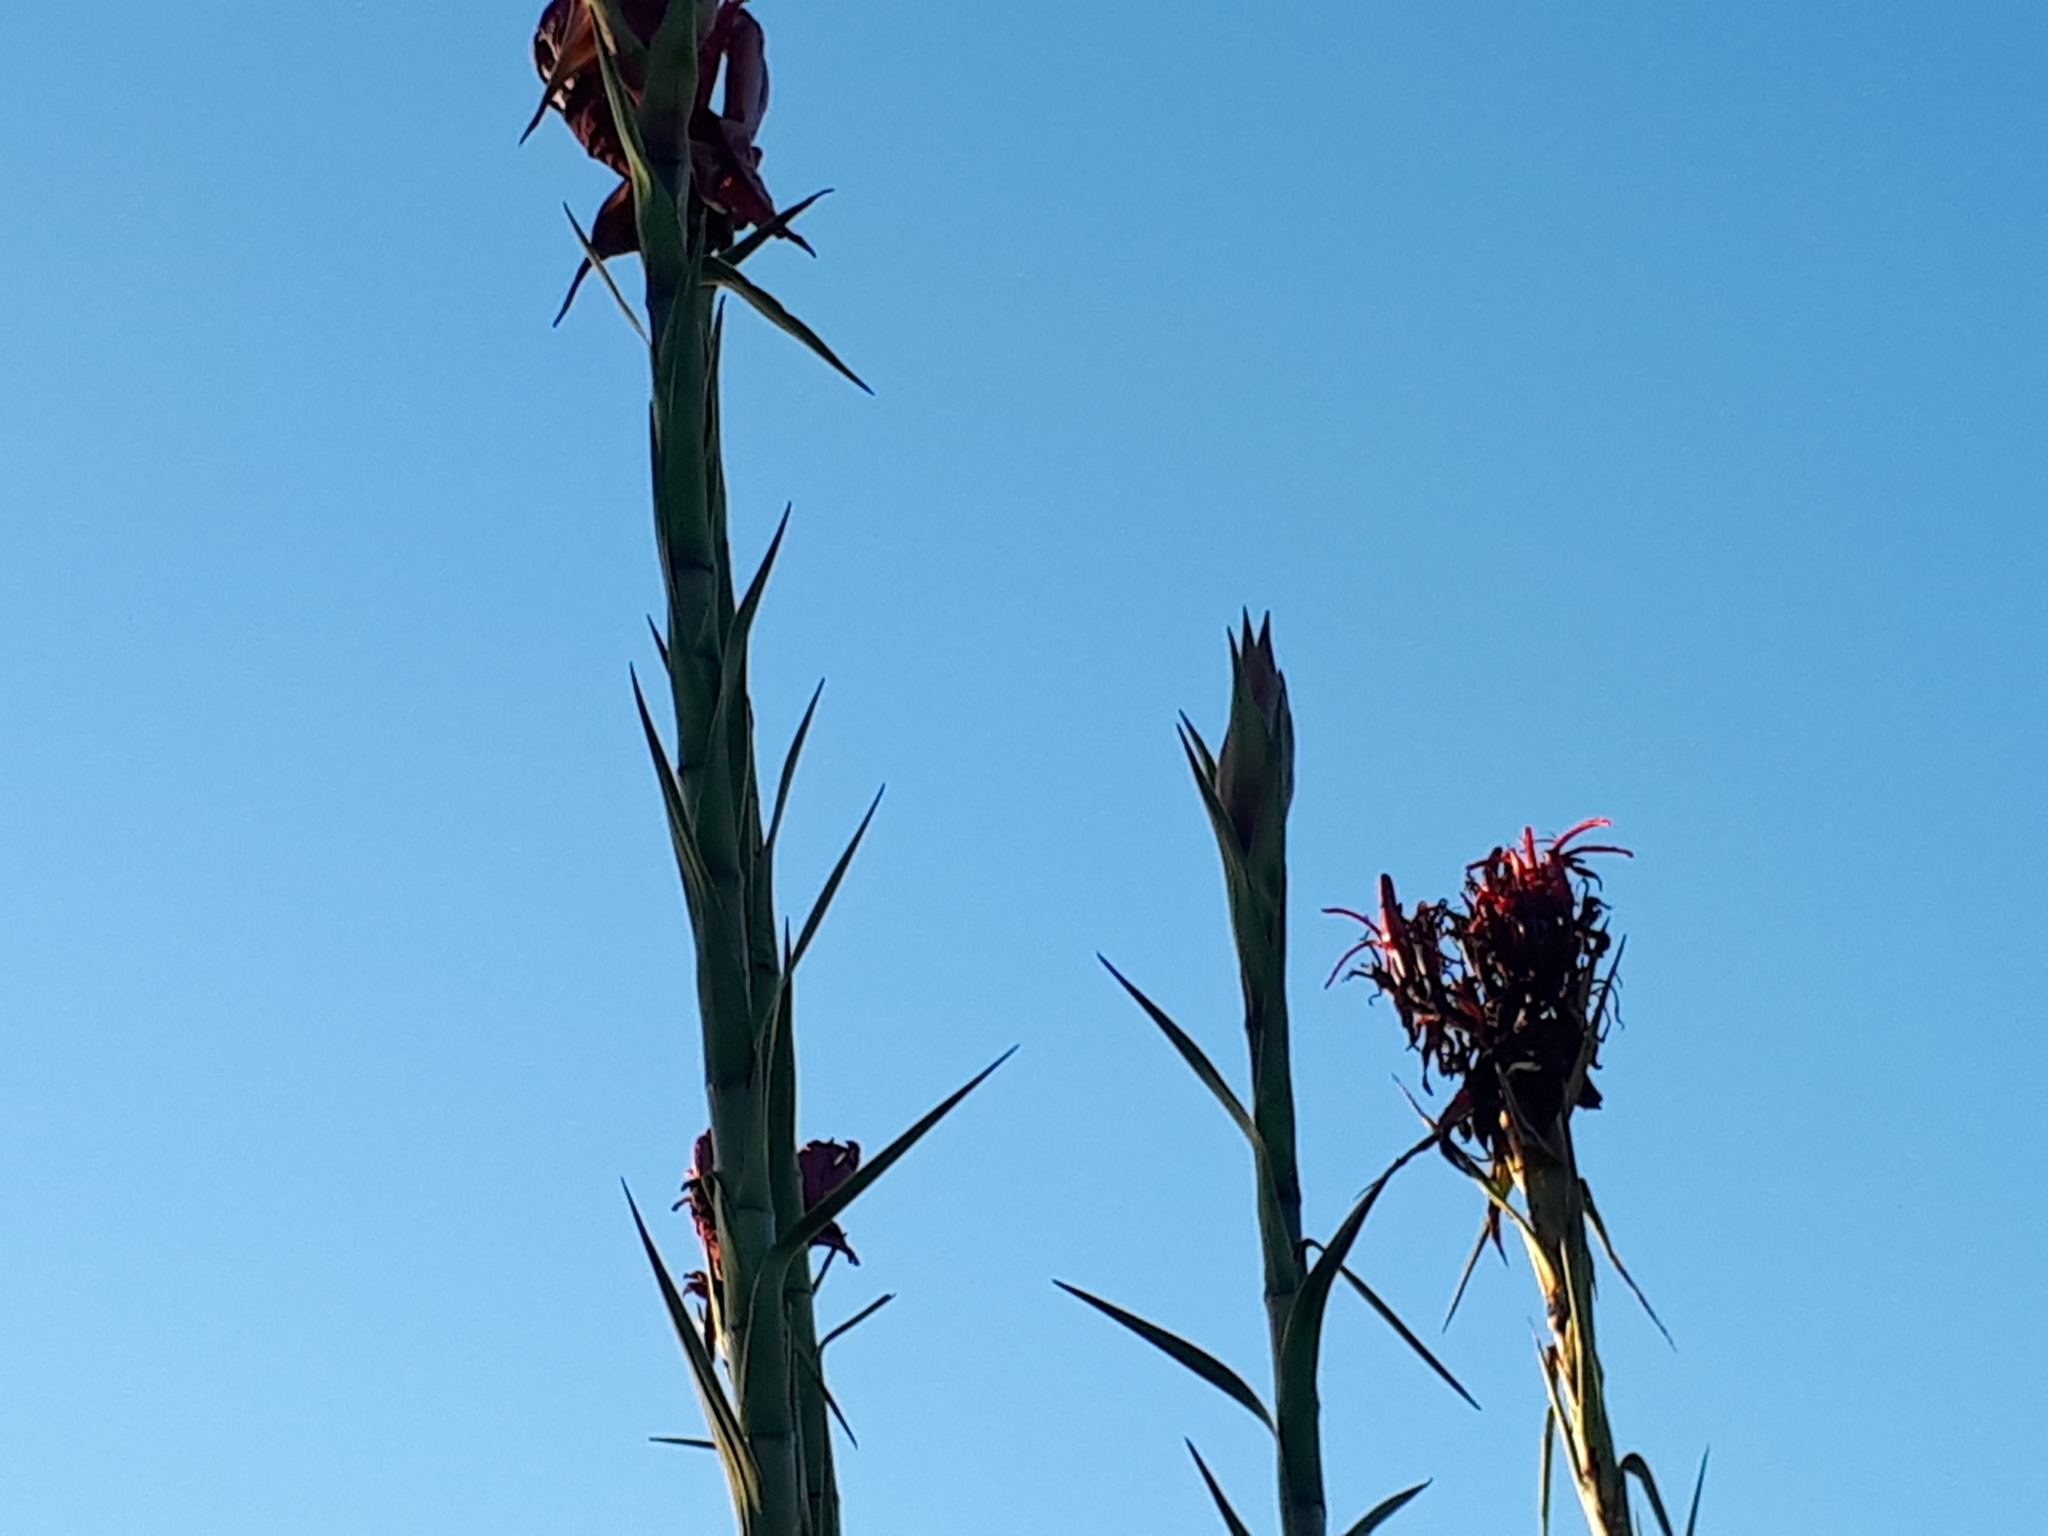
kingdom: Plantae
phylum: Tracheophyta
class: Liliopsida
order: Asparagales
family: Doryanthaceae
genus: Doryanthes
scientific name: Doryanthes excelsa
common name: Giant-lily
